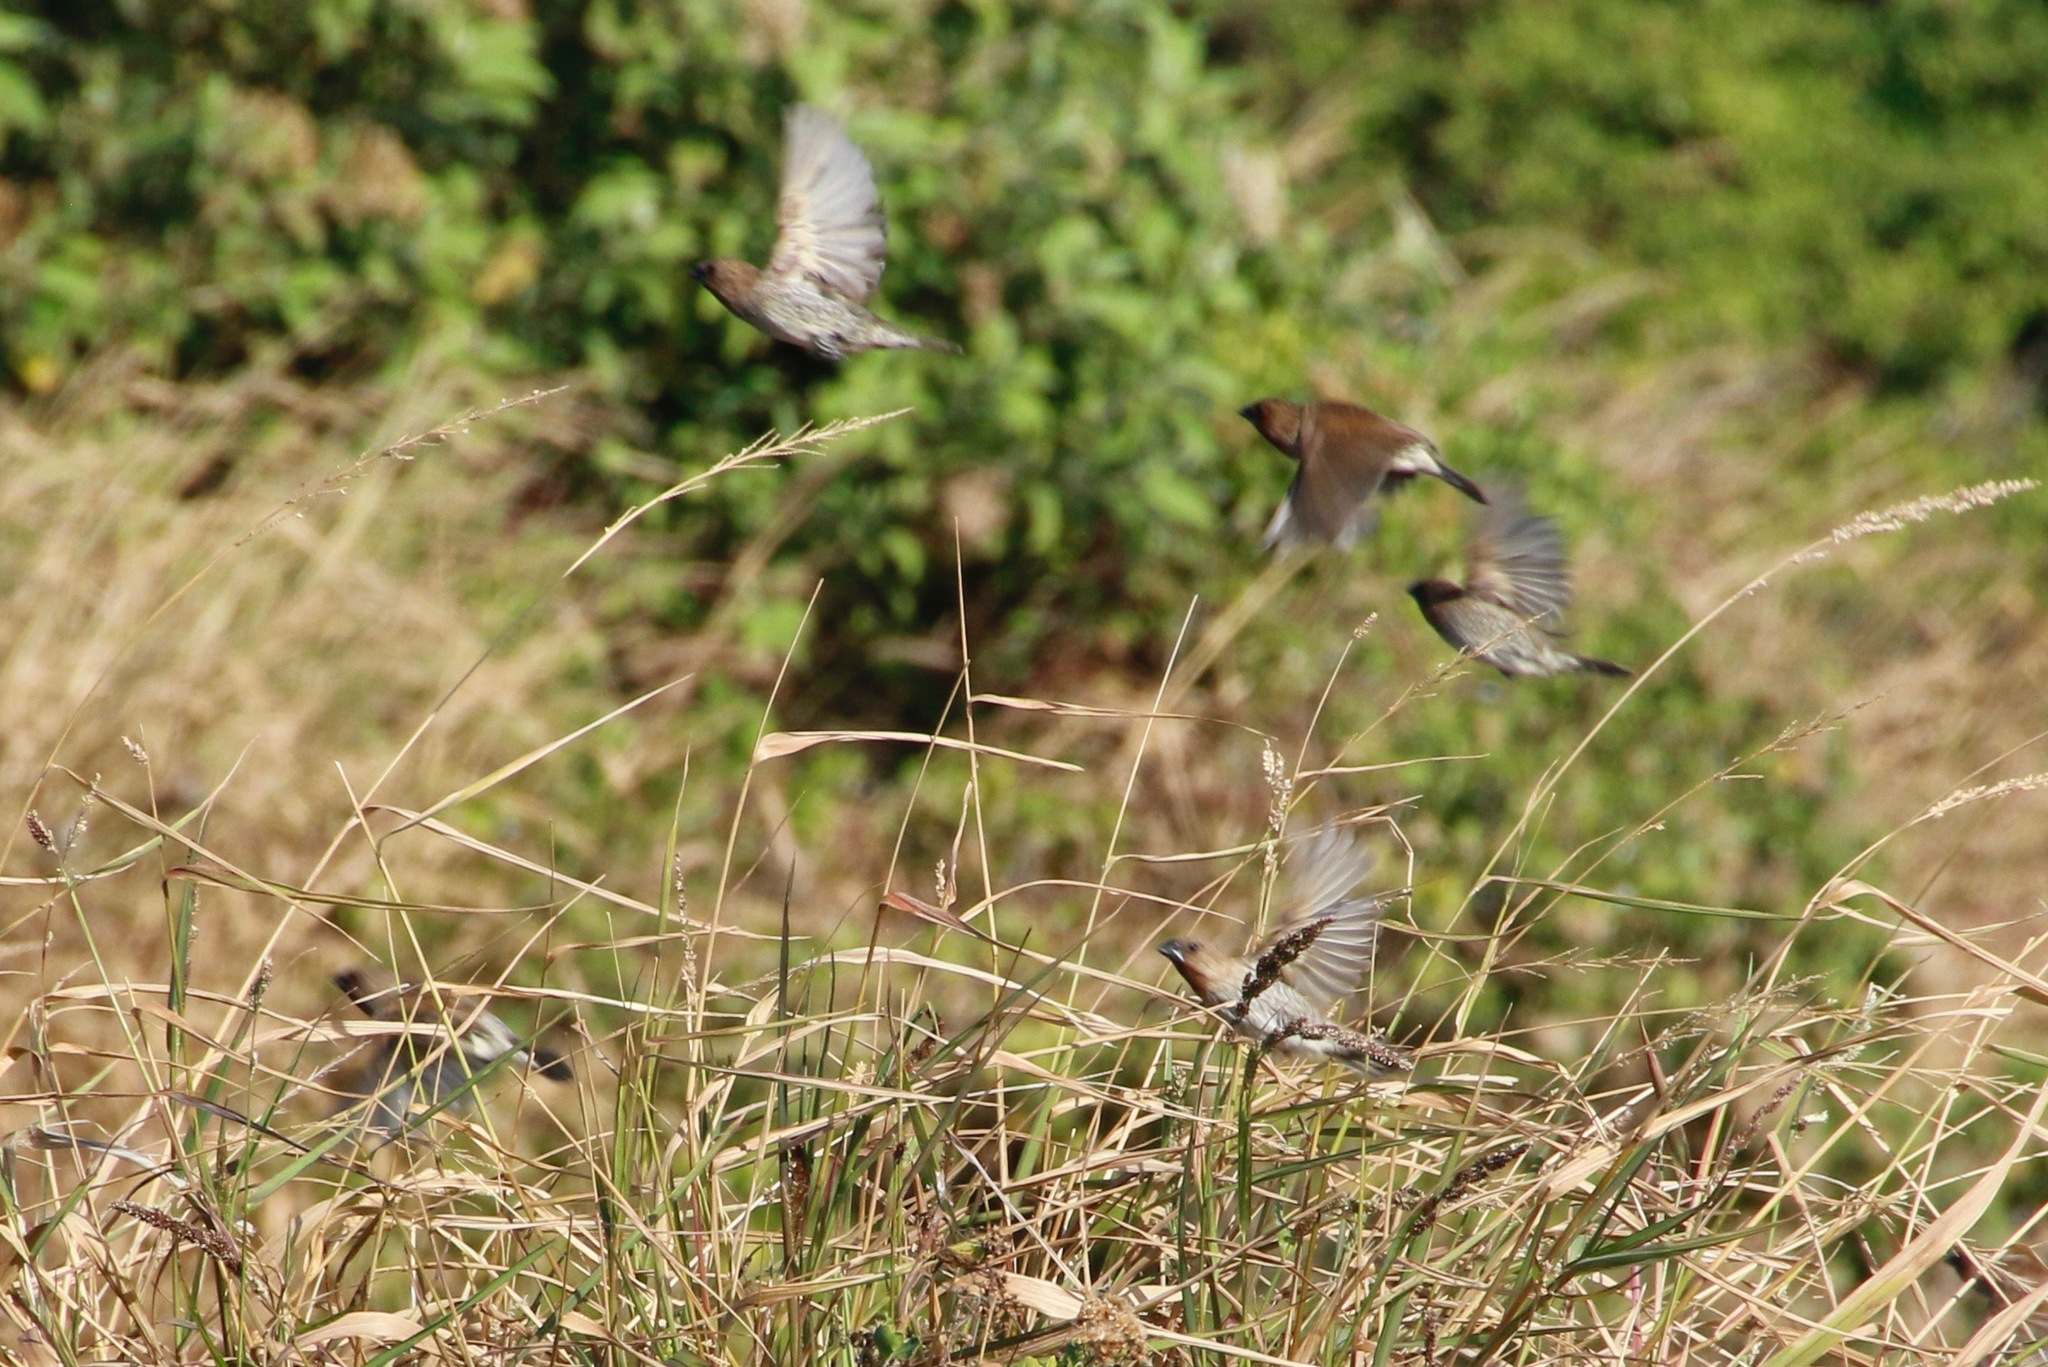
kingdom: Animalia
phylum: Chordata
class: Aves
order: Passeriformes
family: Estrildidae
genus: Lonchura
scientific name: Lonchura punctulata
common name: Scaly-breasted munia
